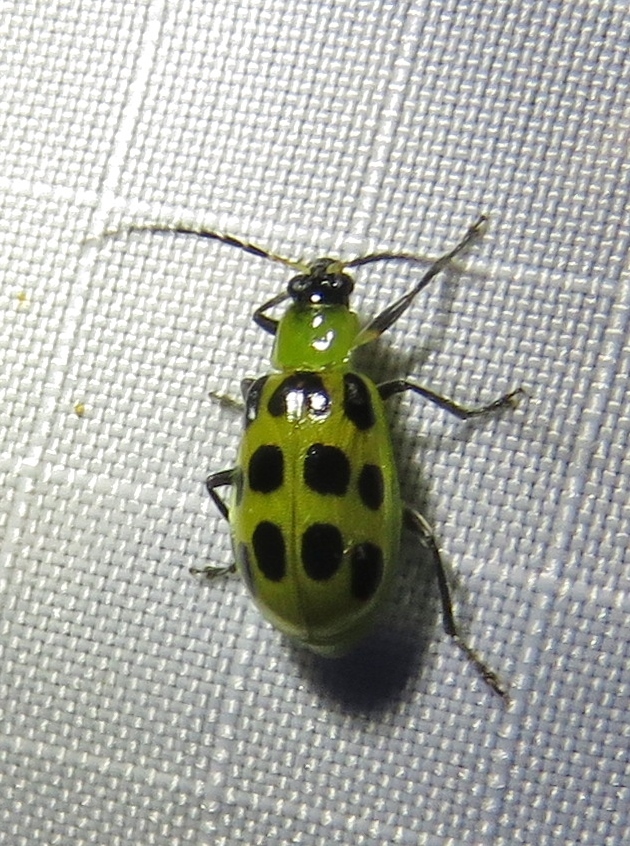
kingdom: Animalia
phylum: Arthropoda
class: Insecta
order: Coleoptera
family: Chrysomelidae
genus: Diabrotica
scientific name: Diabrotica undecimpunctata
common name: Spotted cucumber beetle
